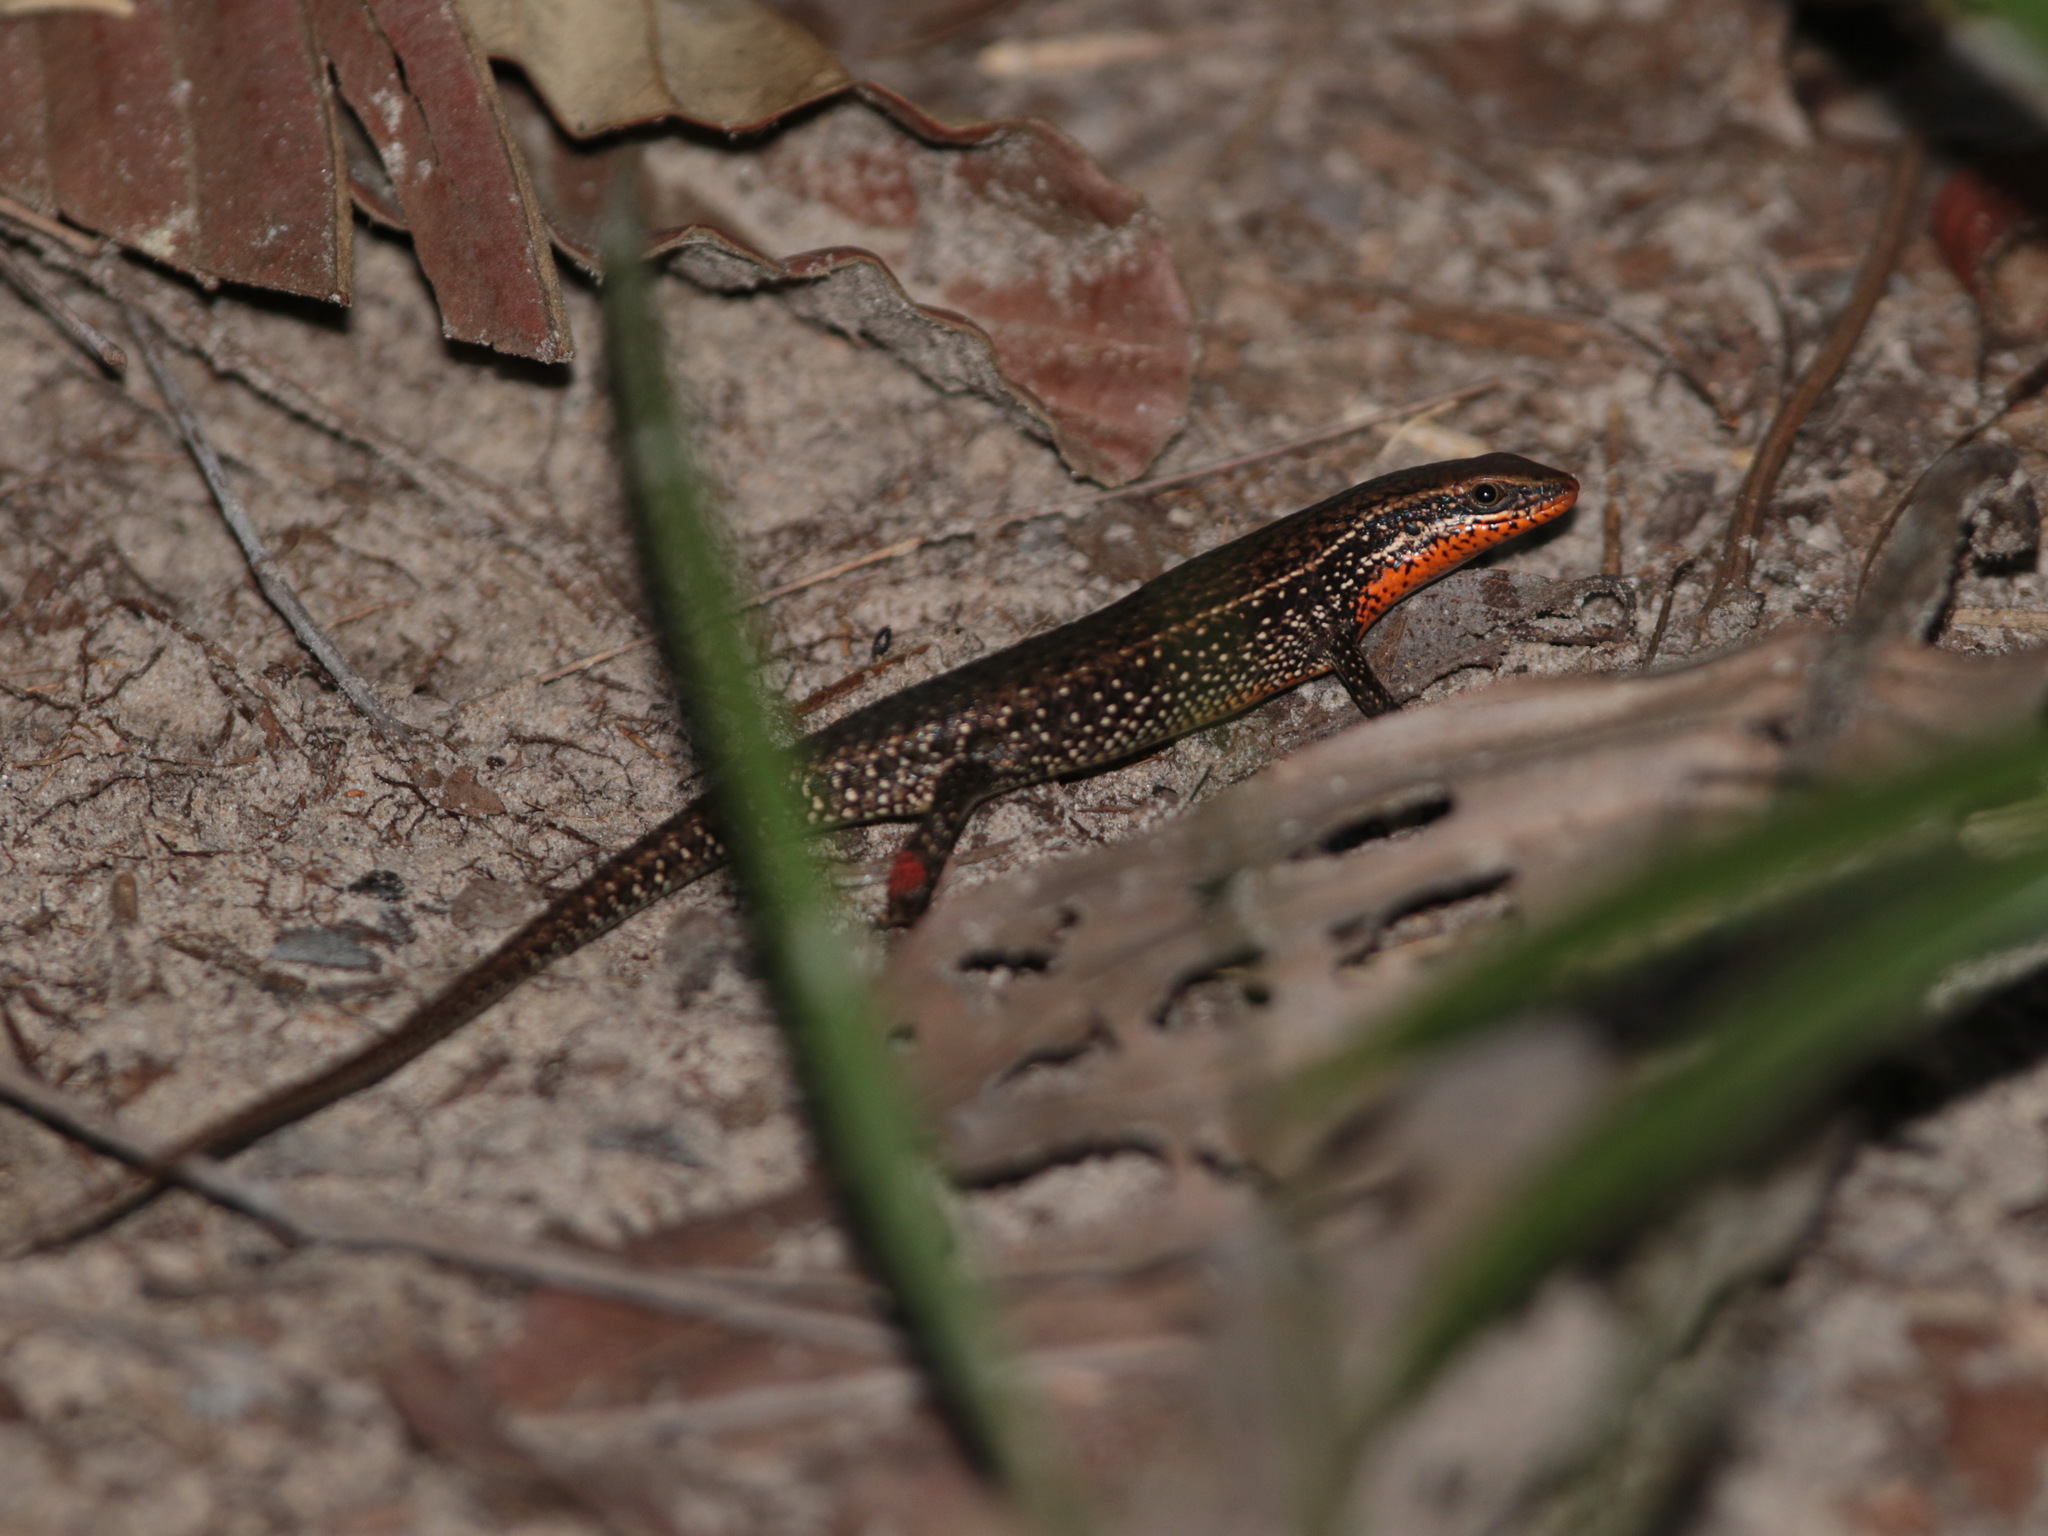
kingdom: Animalia
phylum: Chordata
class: Squamata
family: Scincidae
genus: Eutropis
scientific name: Eutropis macularia
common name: Bronze mabuya
